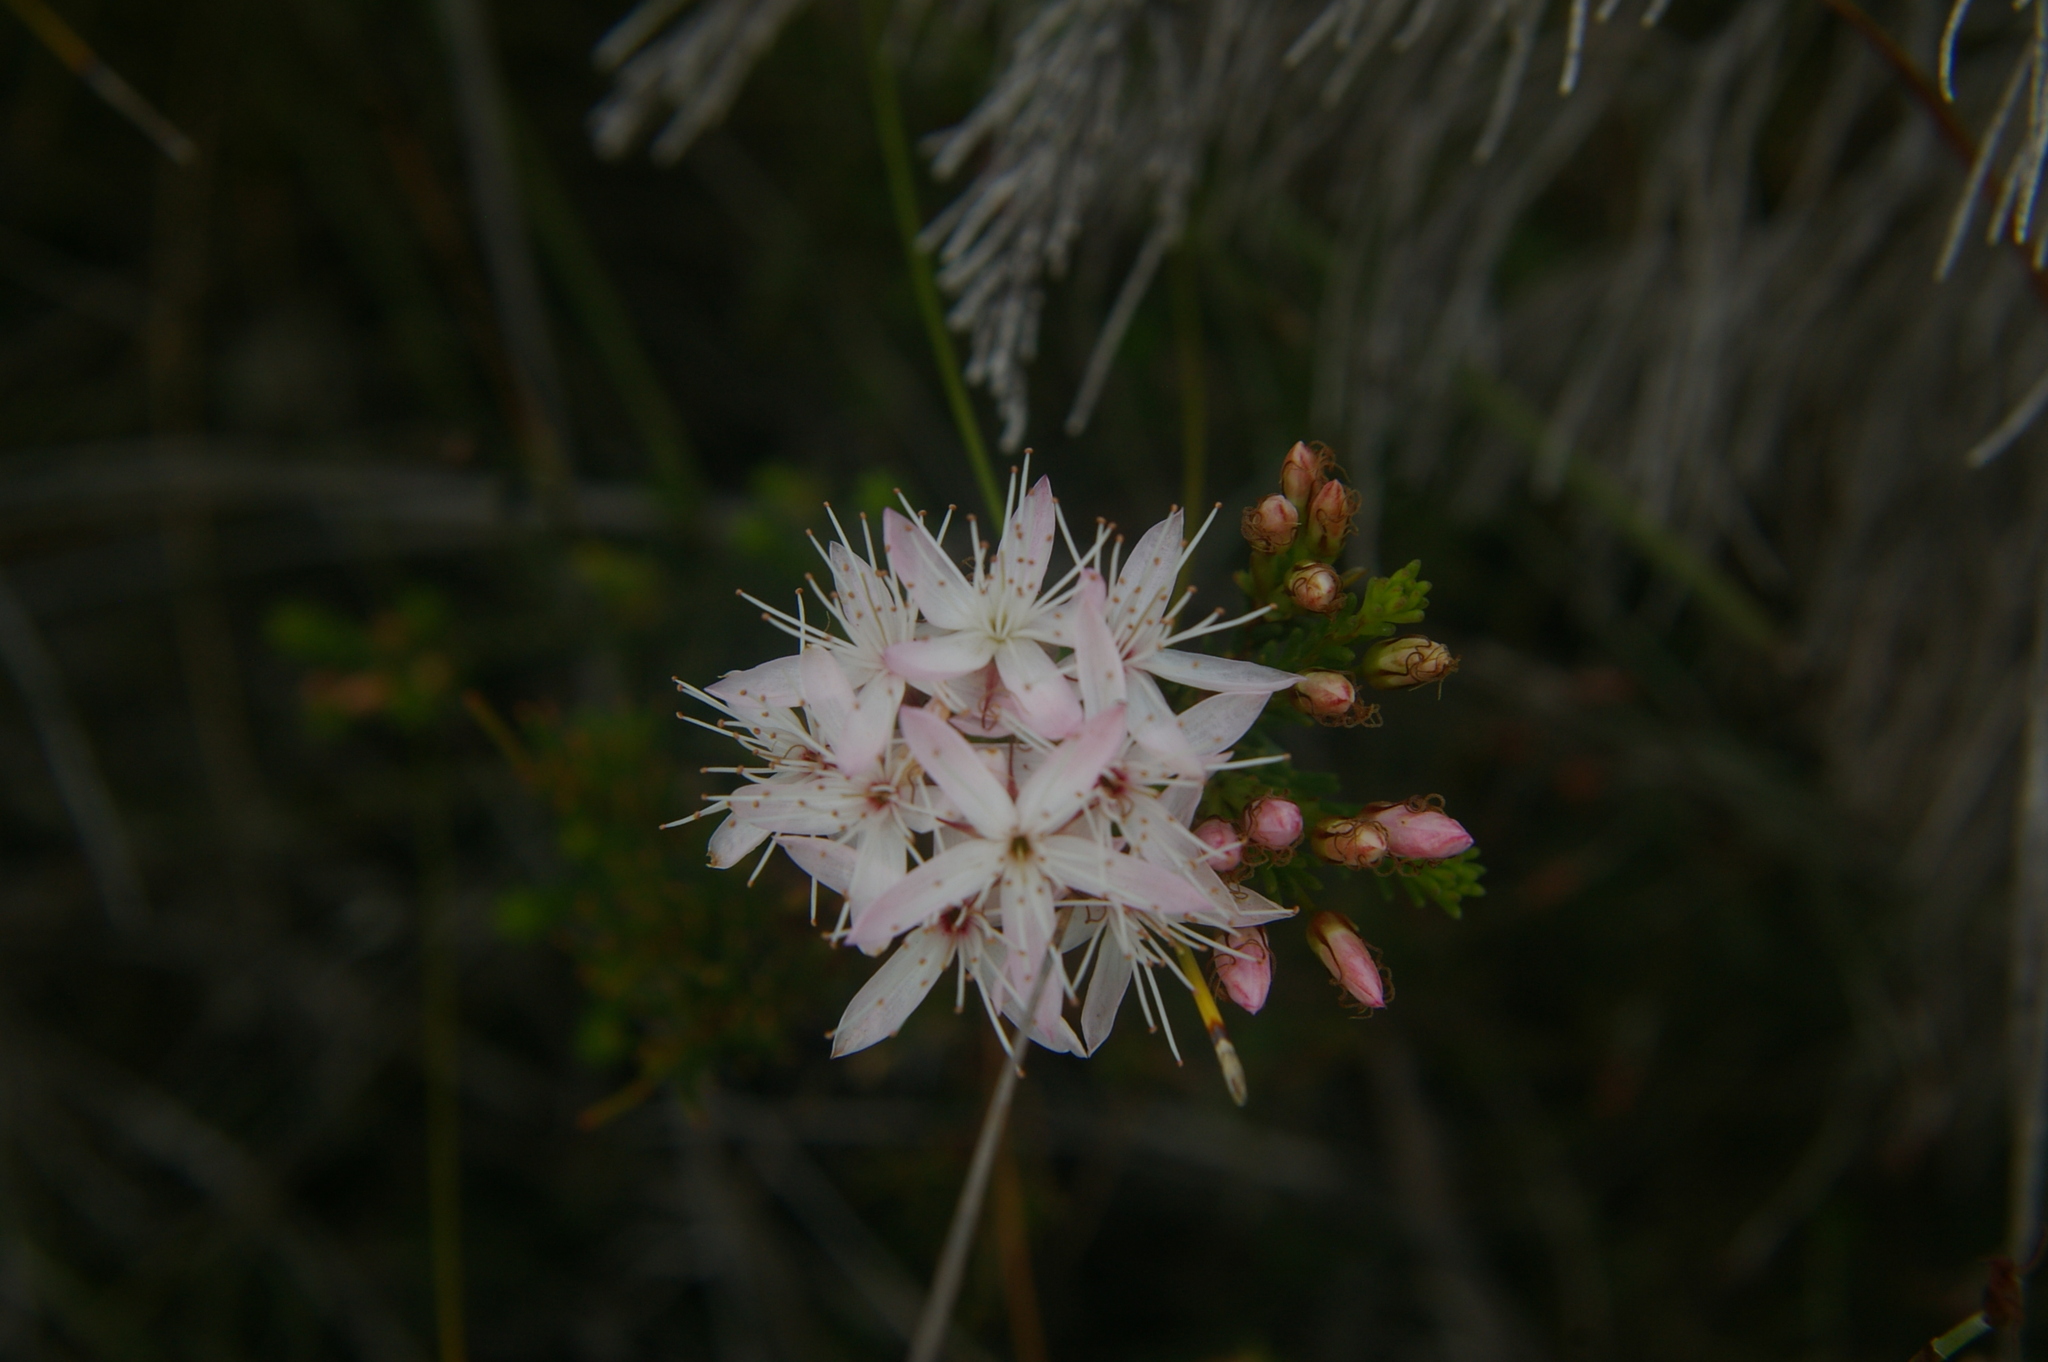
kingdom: Plantae
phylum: Tracheophyta
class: Magnoliopsida
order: Myrtales
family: Myrtaceae
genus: Calytrix
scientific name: Calytrix tetragona
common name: Common fringe myrtle
